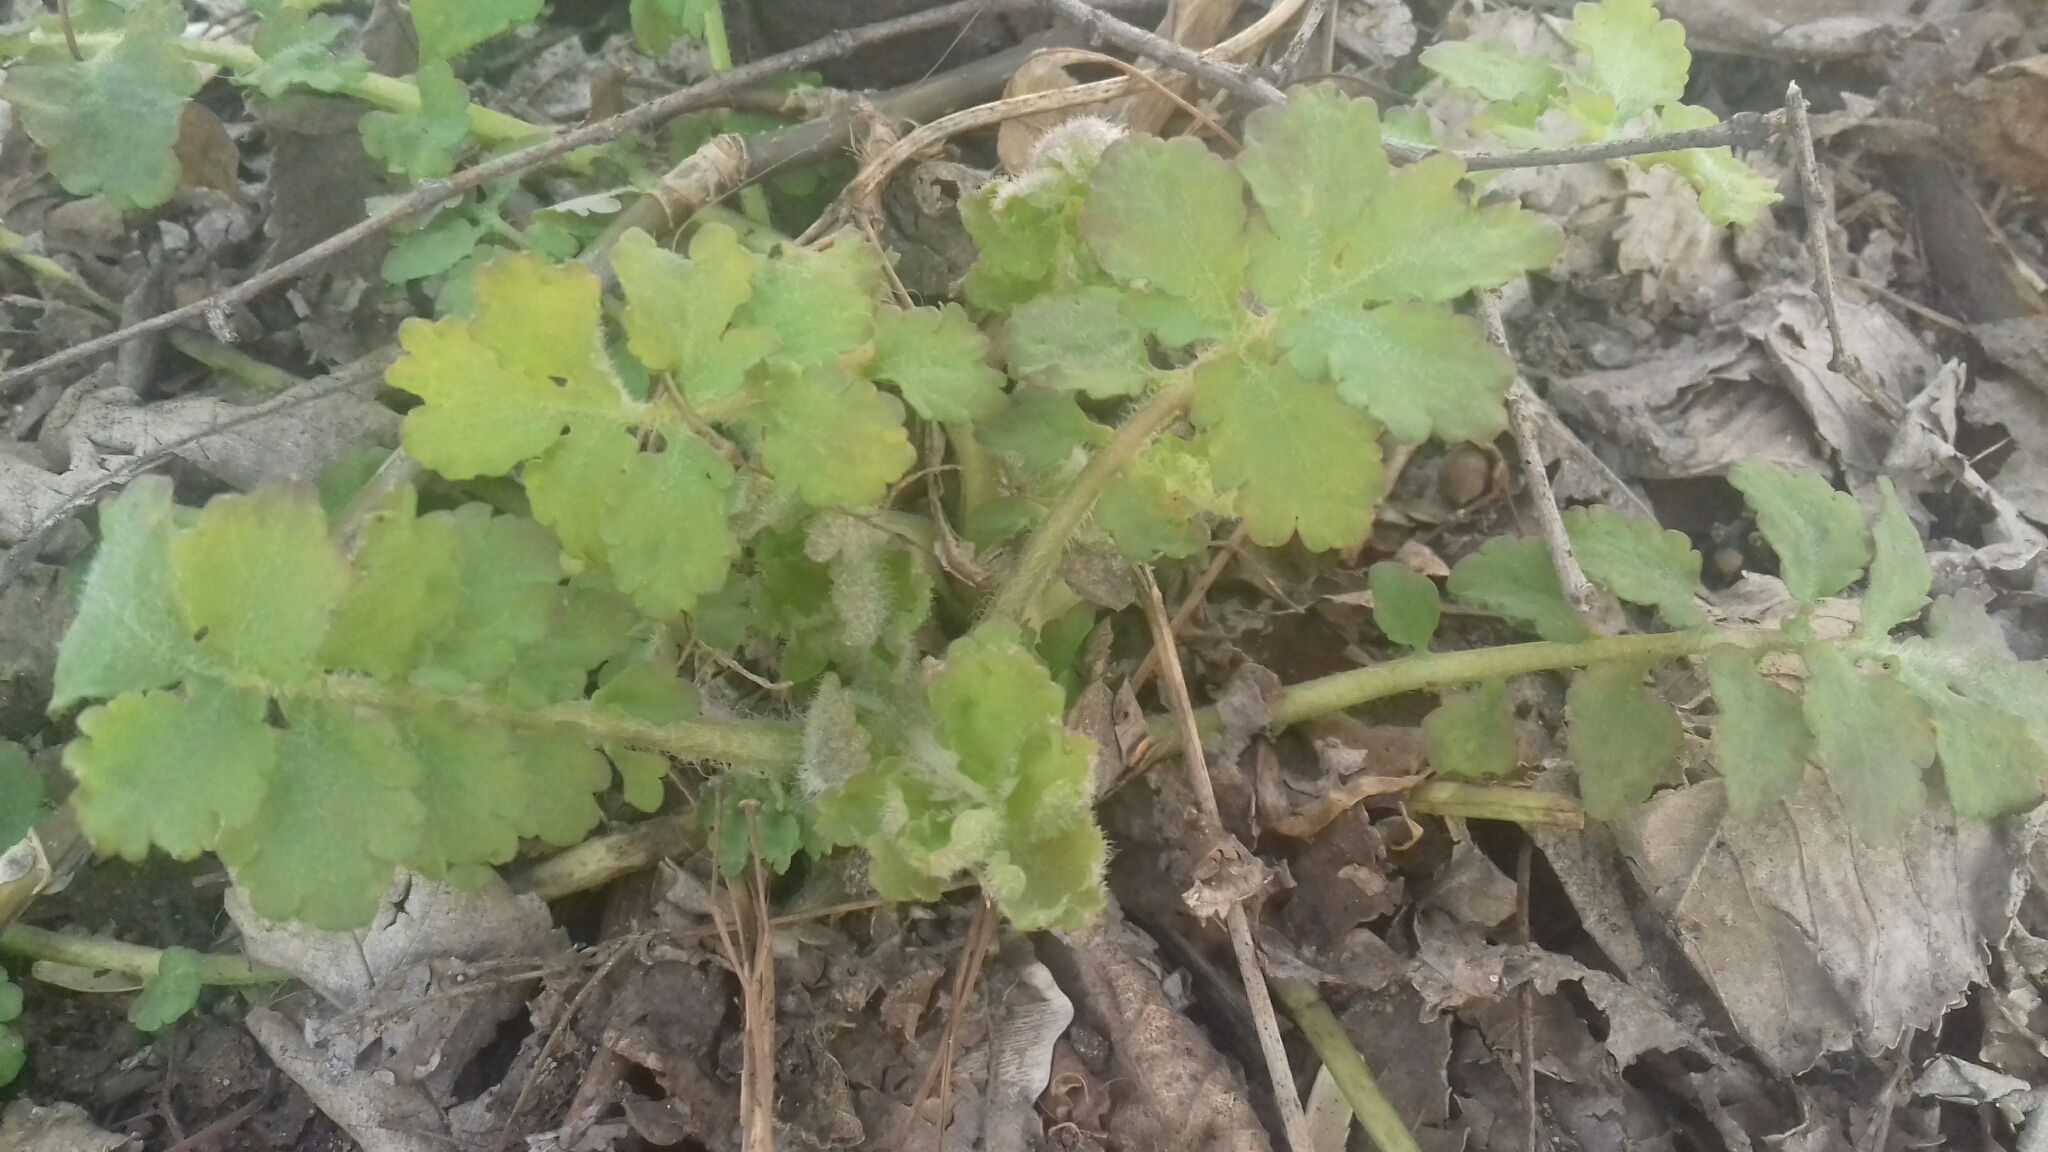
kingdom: Plantae
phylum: Tracheophyta
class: Magnoliopsida
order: Ranunculales
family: Papaveraceae
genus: Chelidonium
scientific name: Chelidonium majus
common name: Greater celandine
